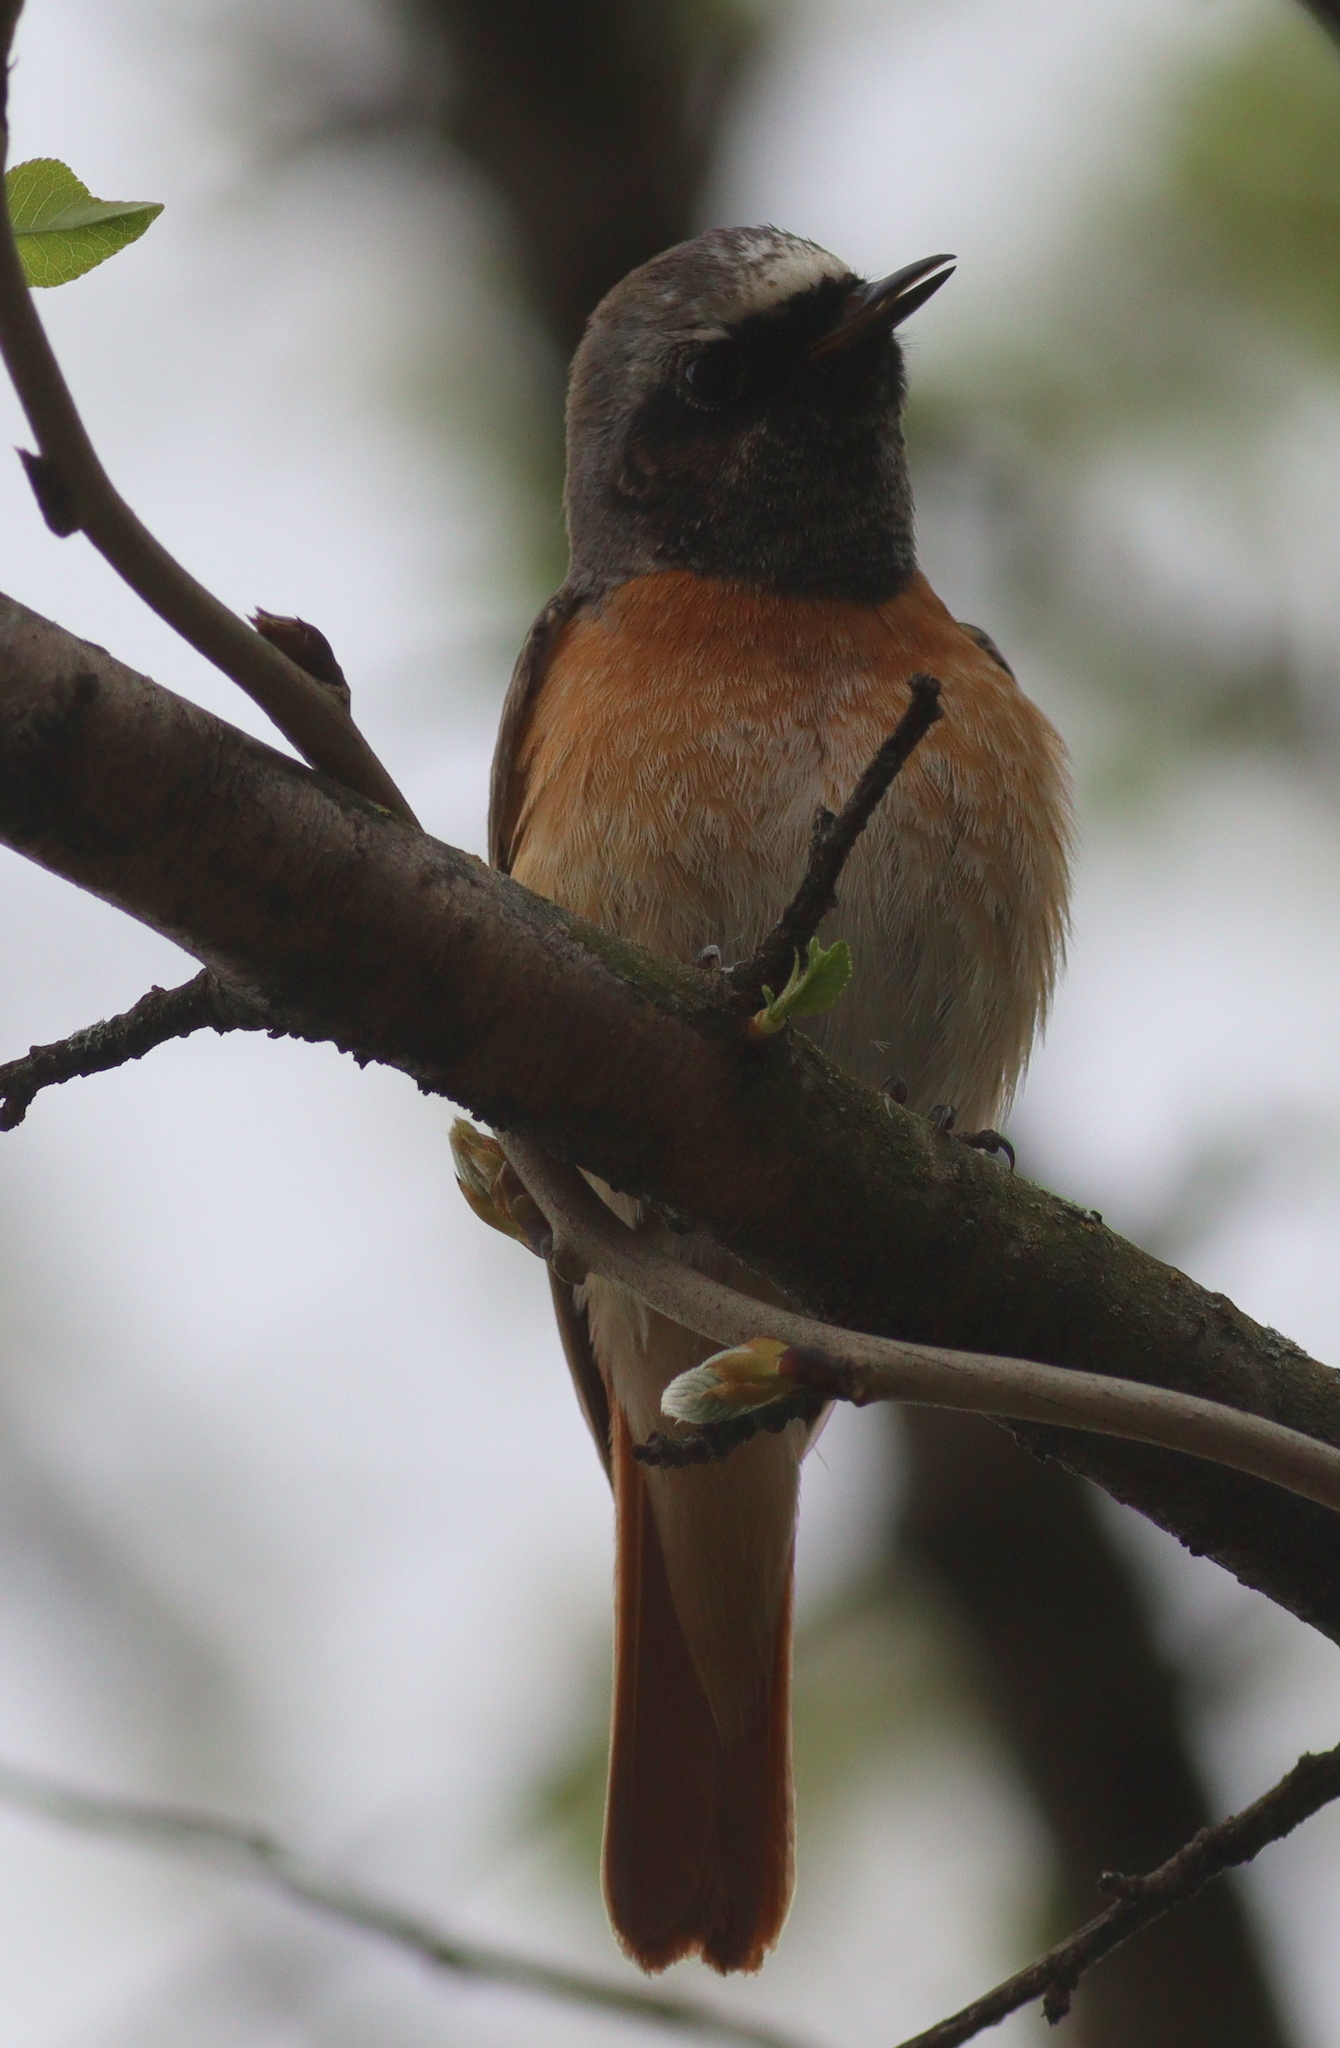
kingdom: Animalia
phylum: Chordata
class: Aves
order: Passeriformes
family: Muscicapidae
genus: Phoenicurus
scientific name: Phoenicurus phoenicurus
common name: Common redstart
